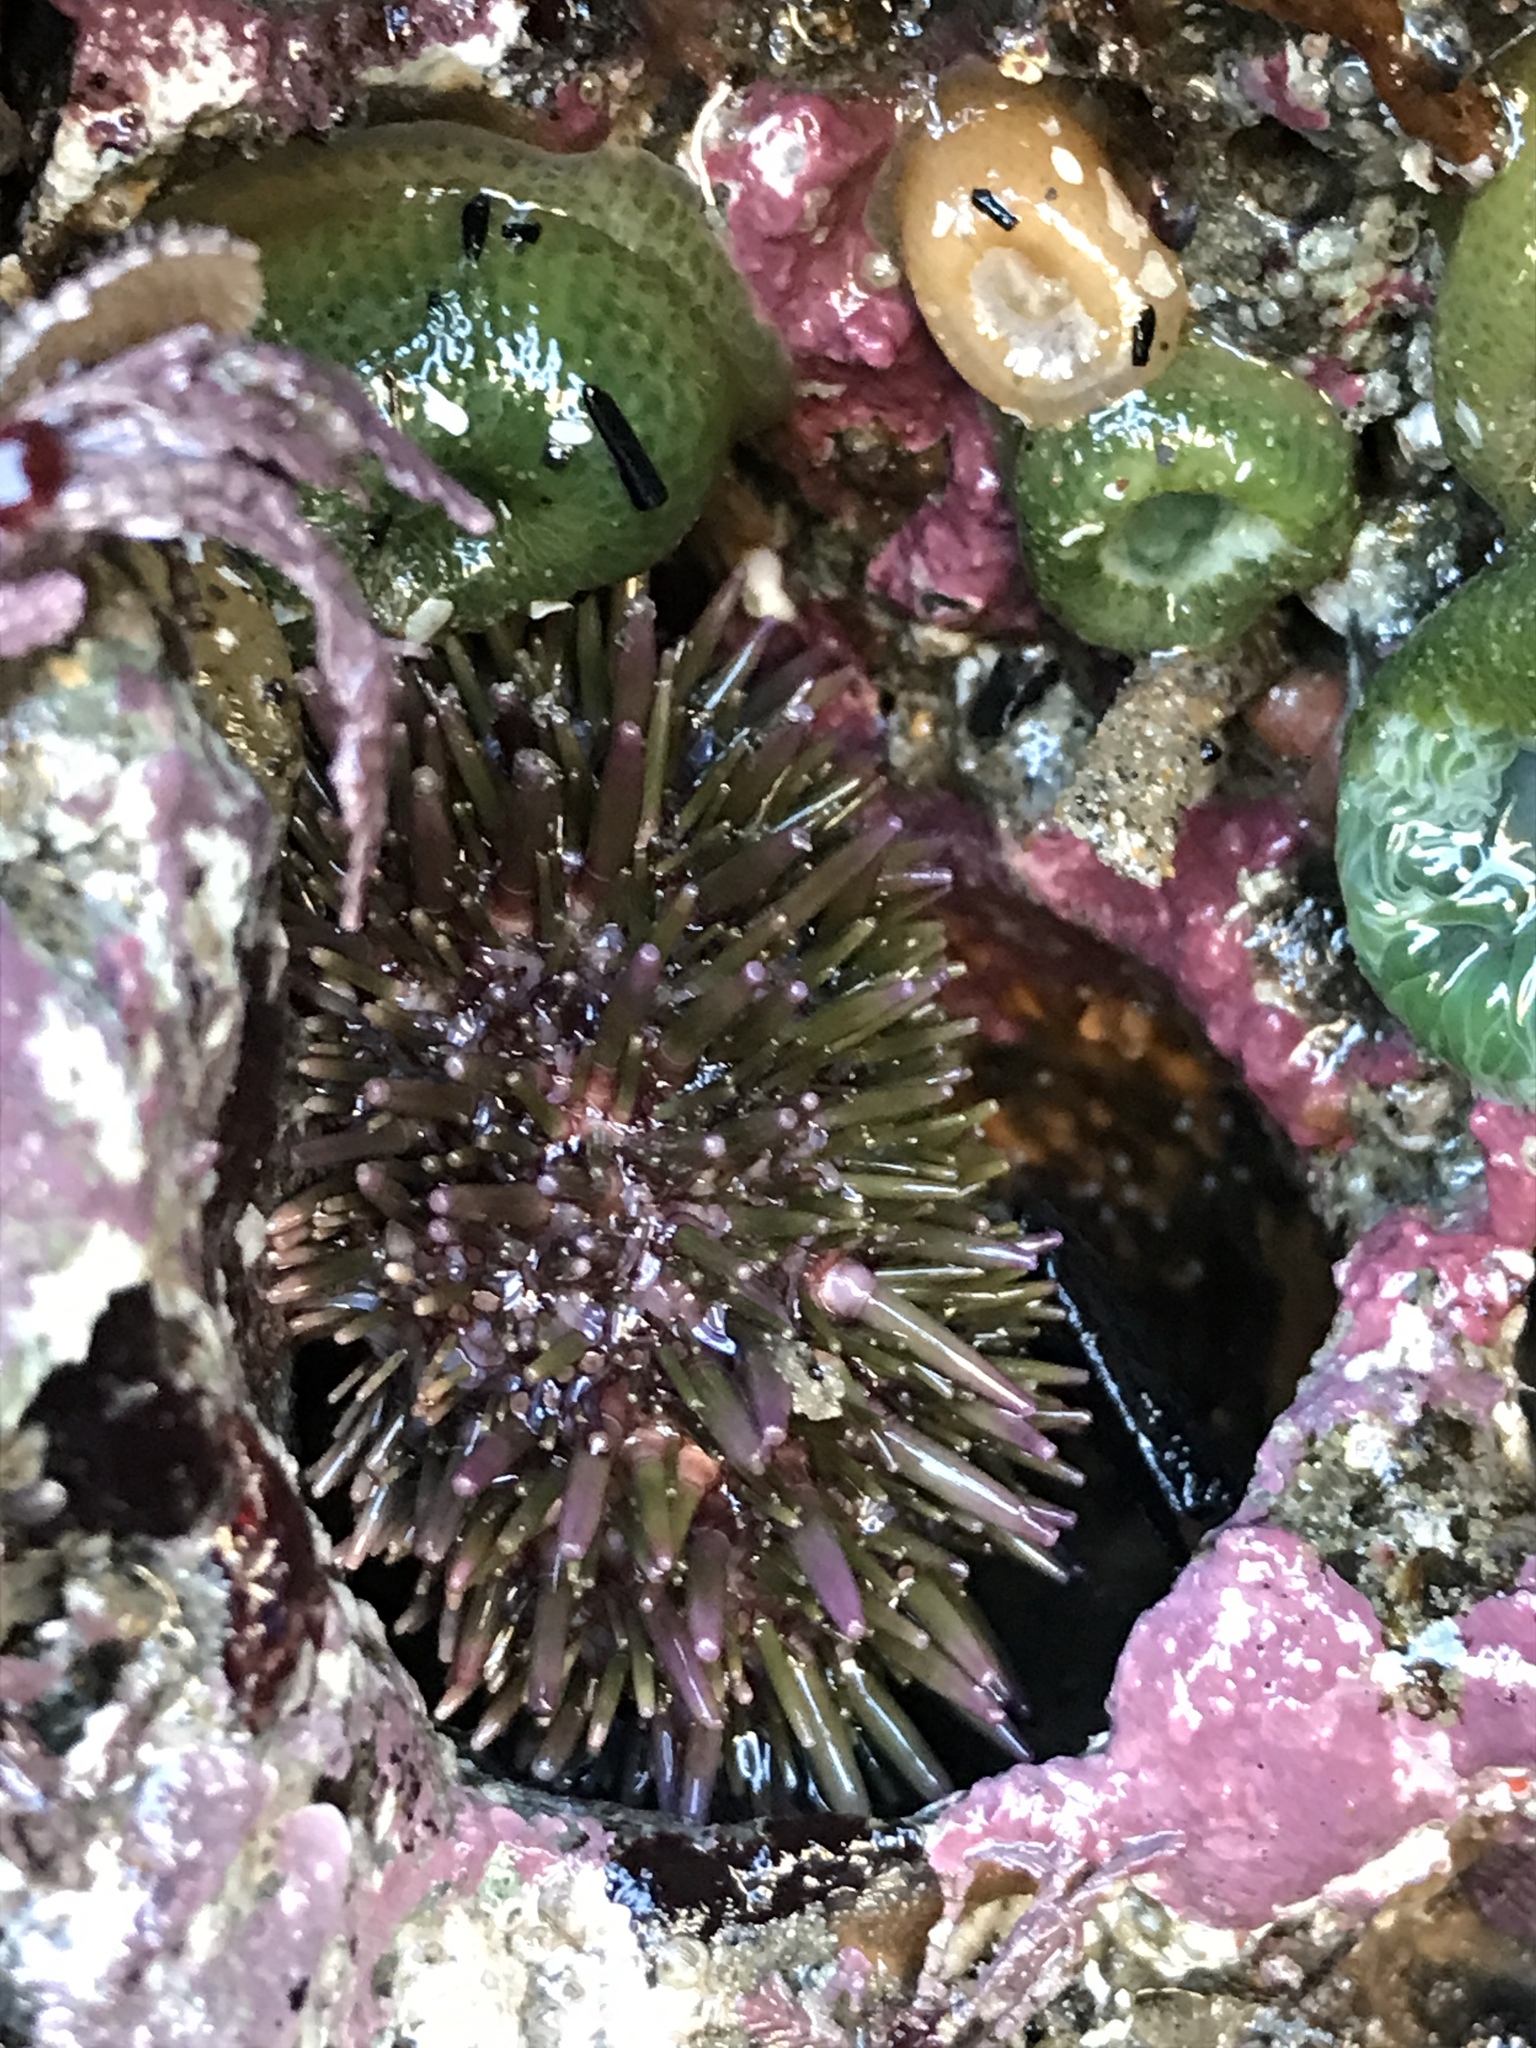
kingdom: Animalia
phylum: Echinodermata
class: Echinoidea
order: Camarodonta
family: Strongylocentrotidae
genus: Strongylocentrotus
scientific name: Strongylocentrotus purpuratus
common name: Purple sea urchin
